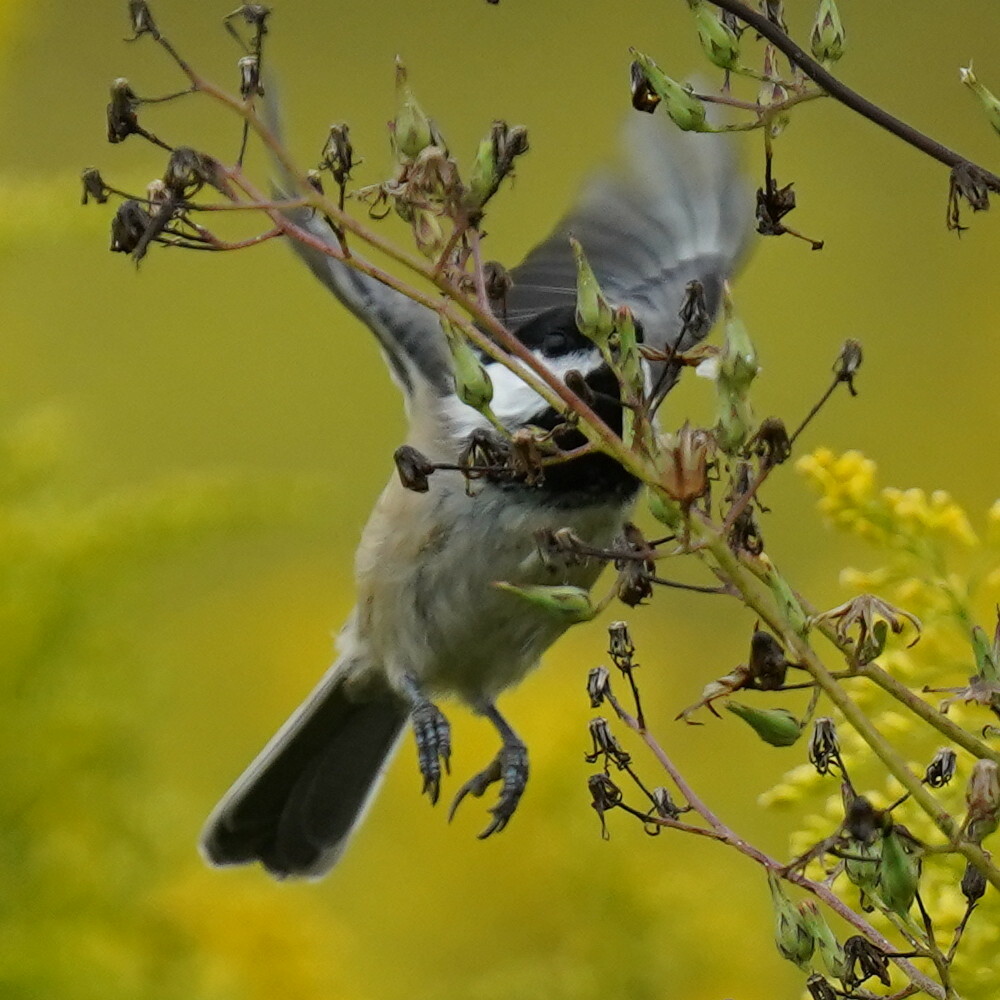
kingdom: Animalia
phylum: Chordata
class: Aves
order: Passeriformes
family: Paridae
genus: Poecile
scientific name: Poecile atricapillus
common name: Black-capped chickadee
